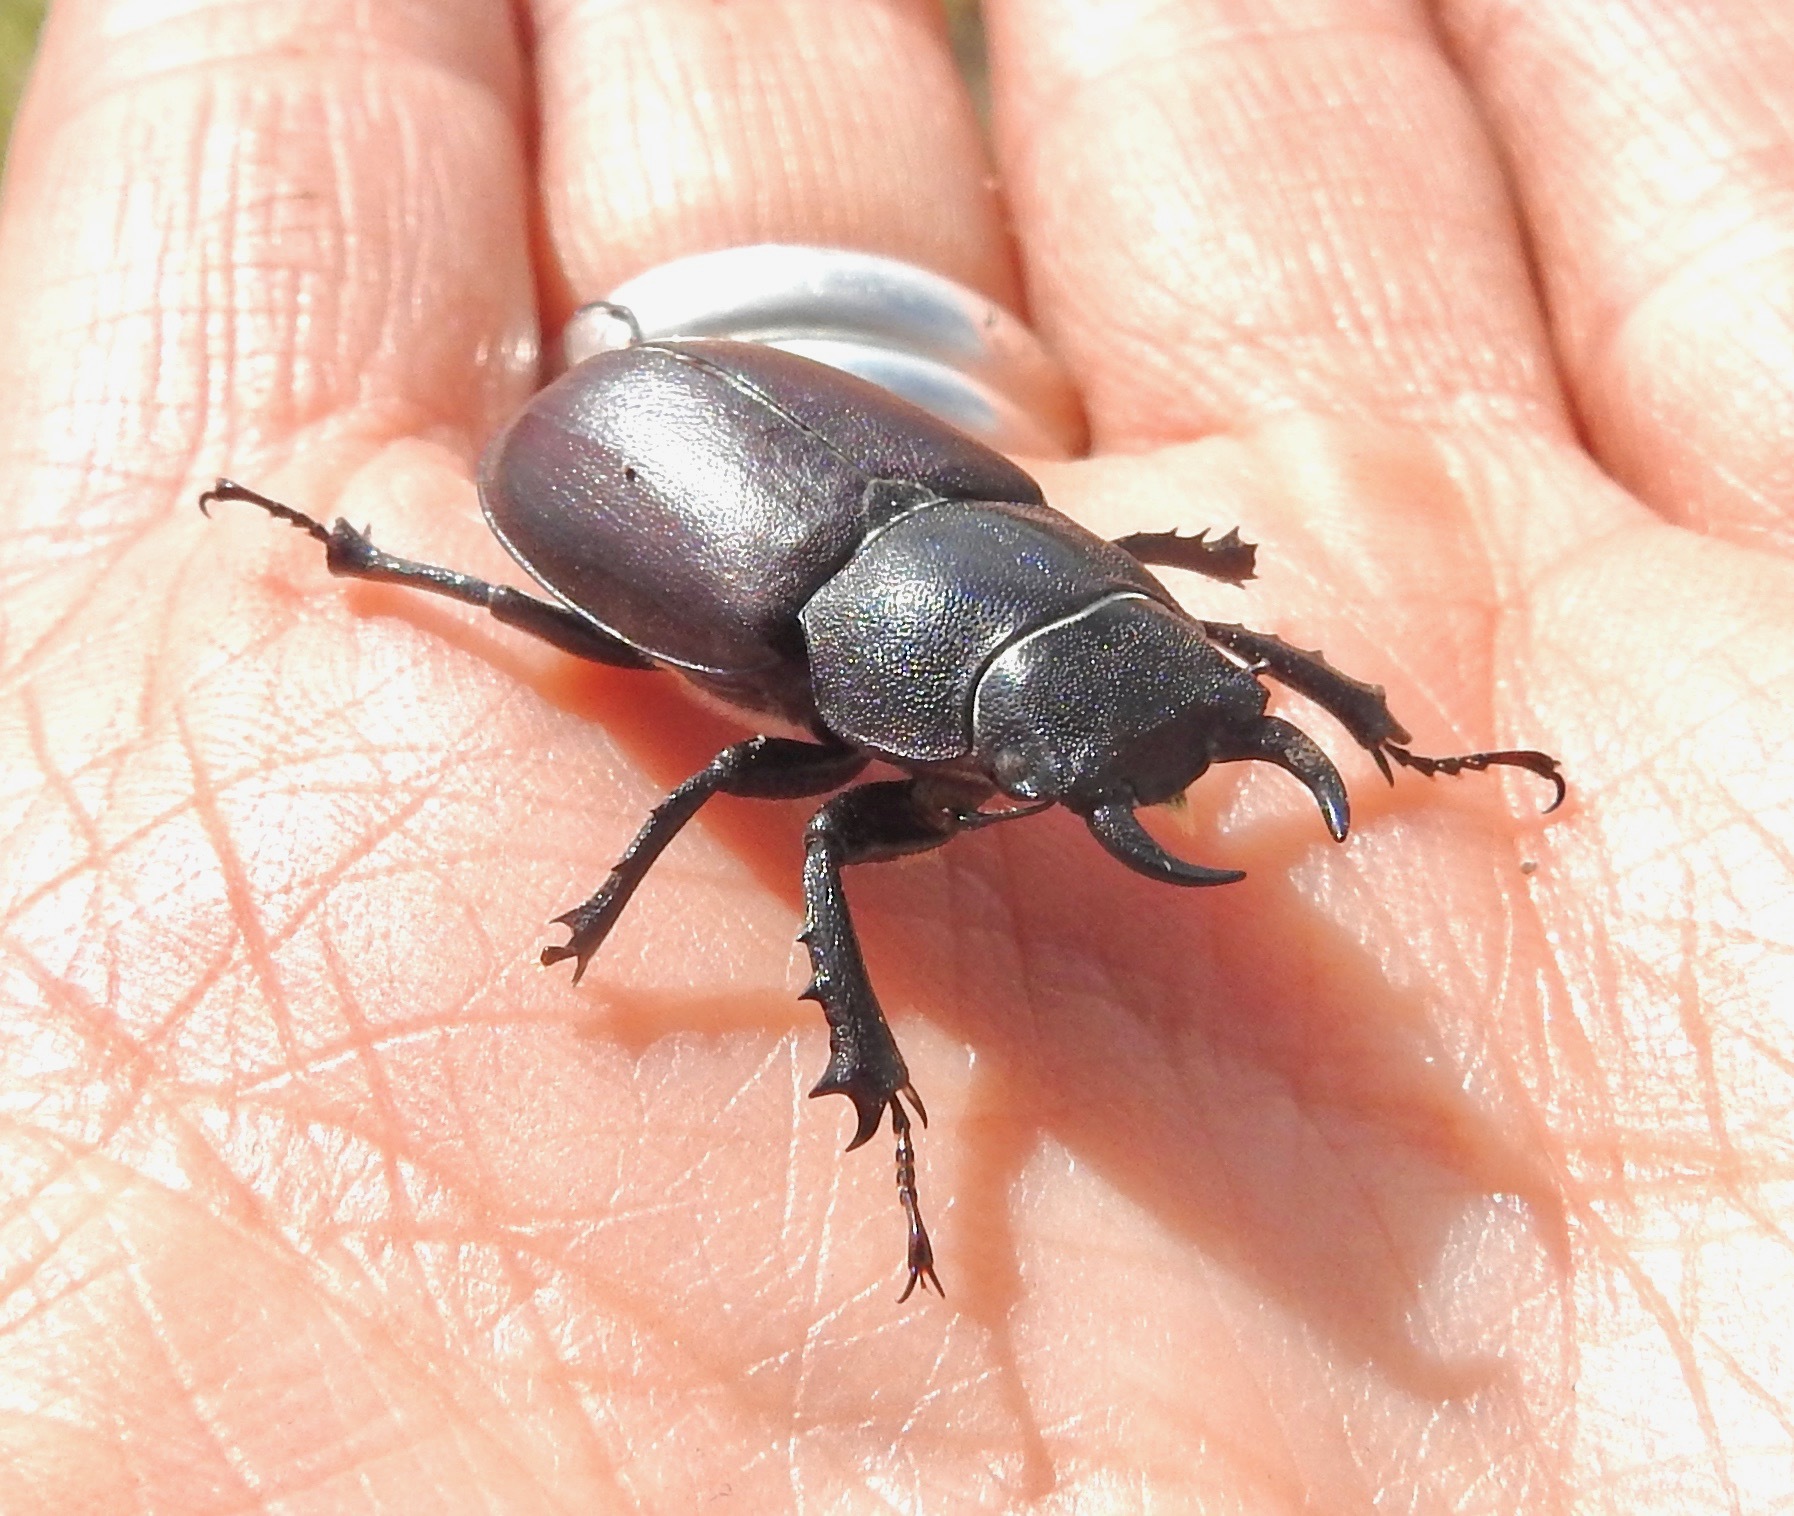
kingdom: Animalia
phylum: Arthropoda
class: Insecta
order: Coleoptera
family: Lucanidae
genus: Lucanus
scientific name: Lucanus mazama
